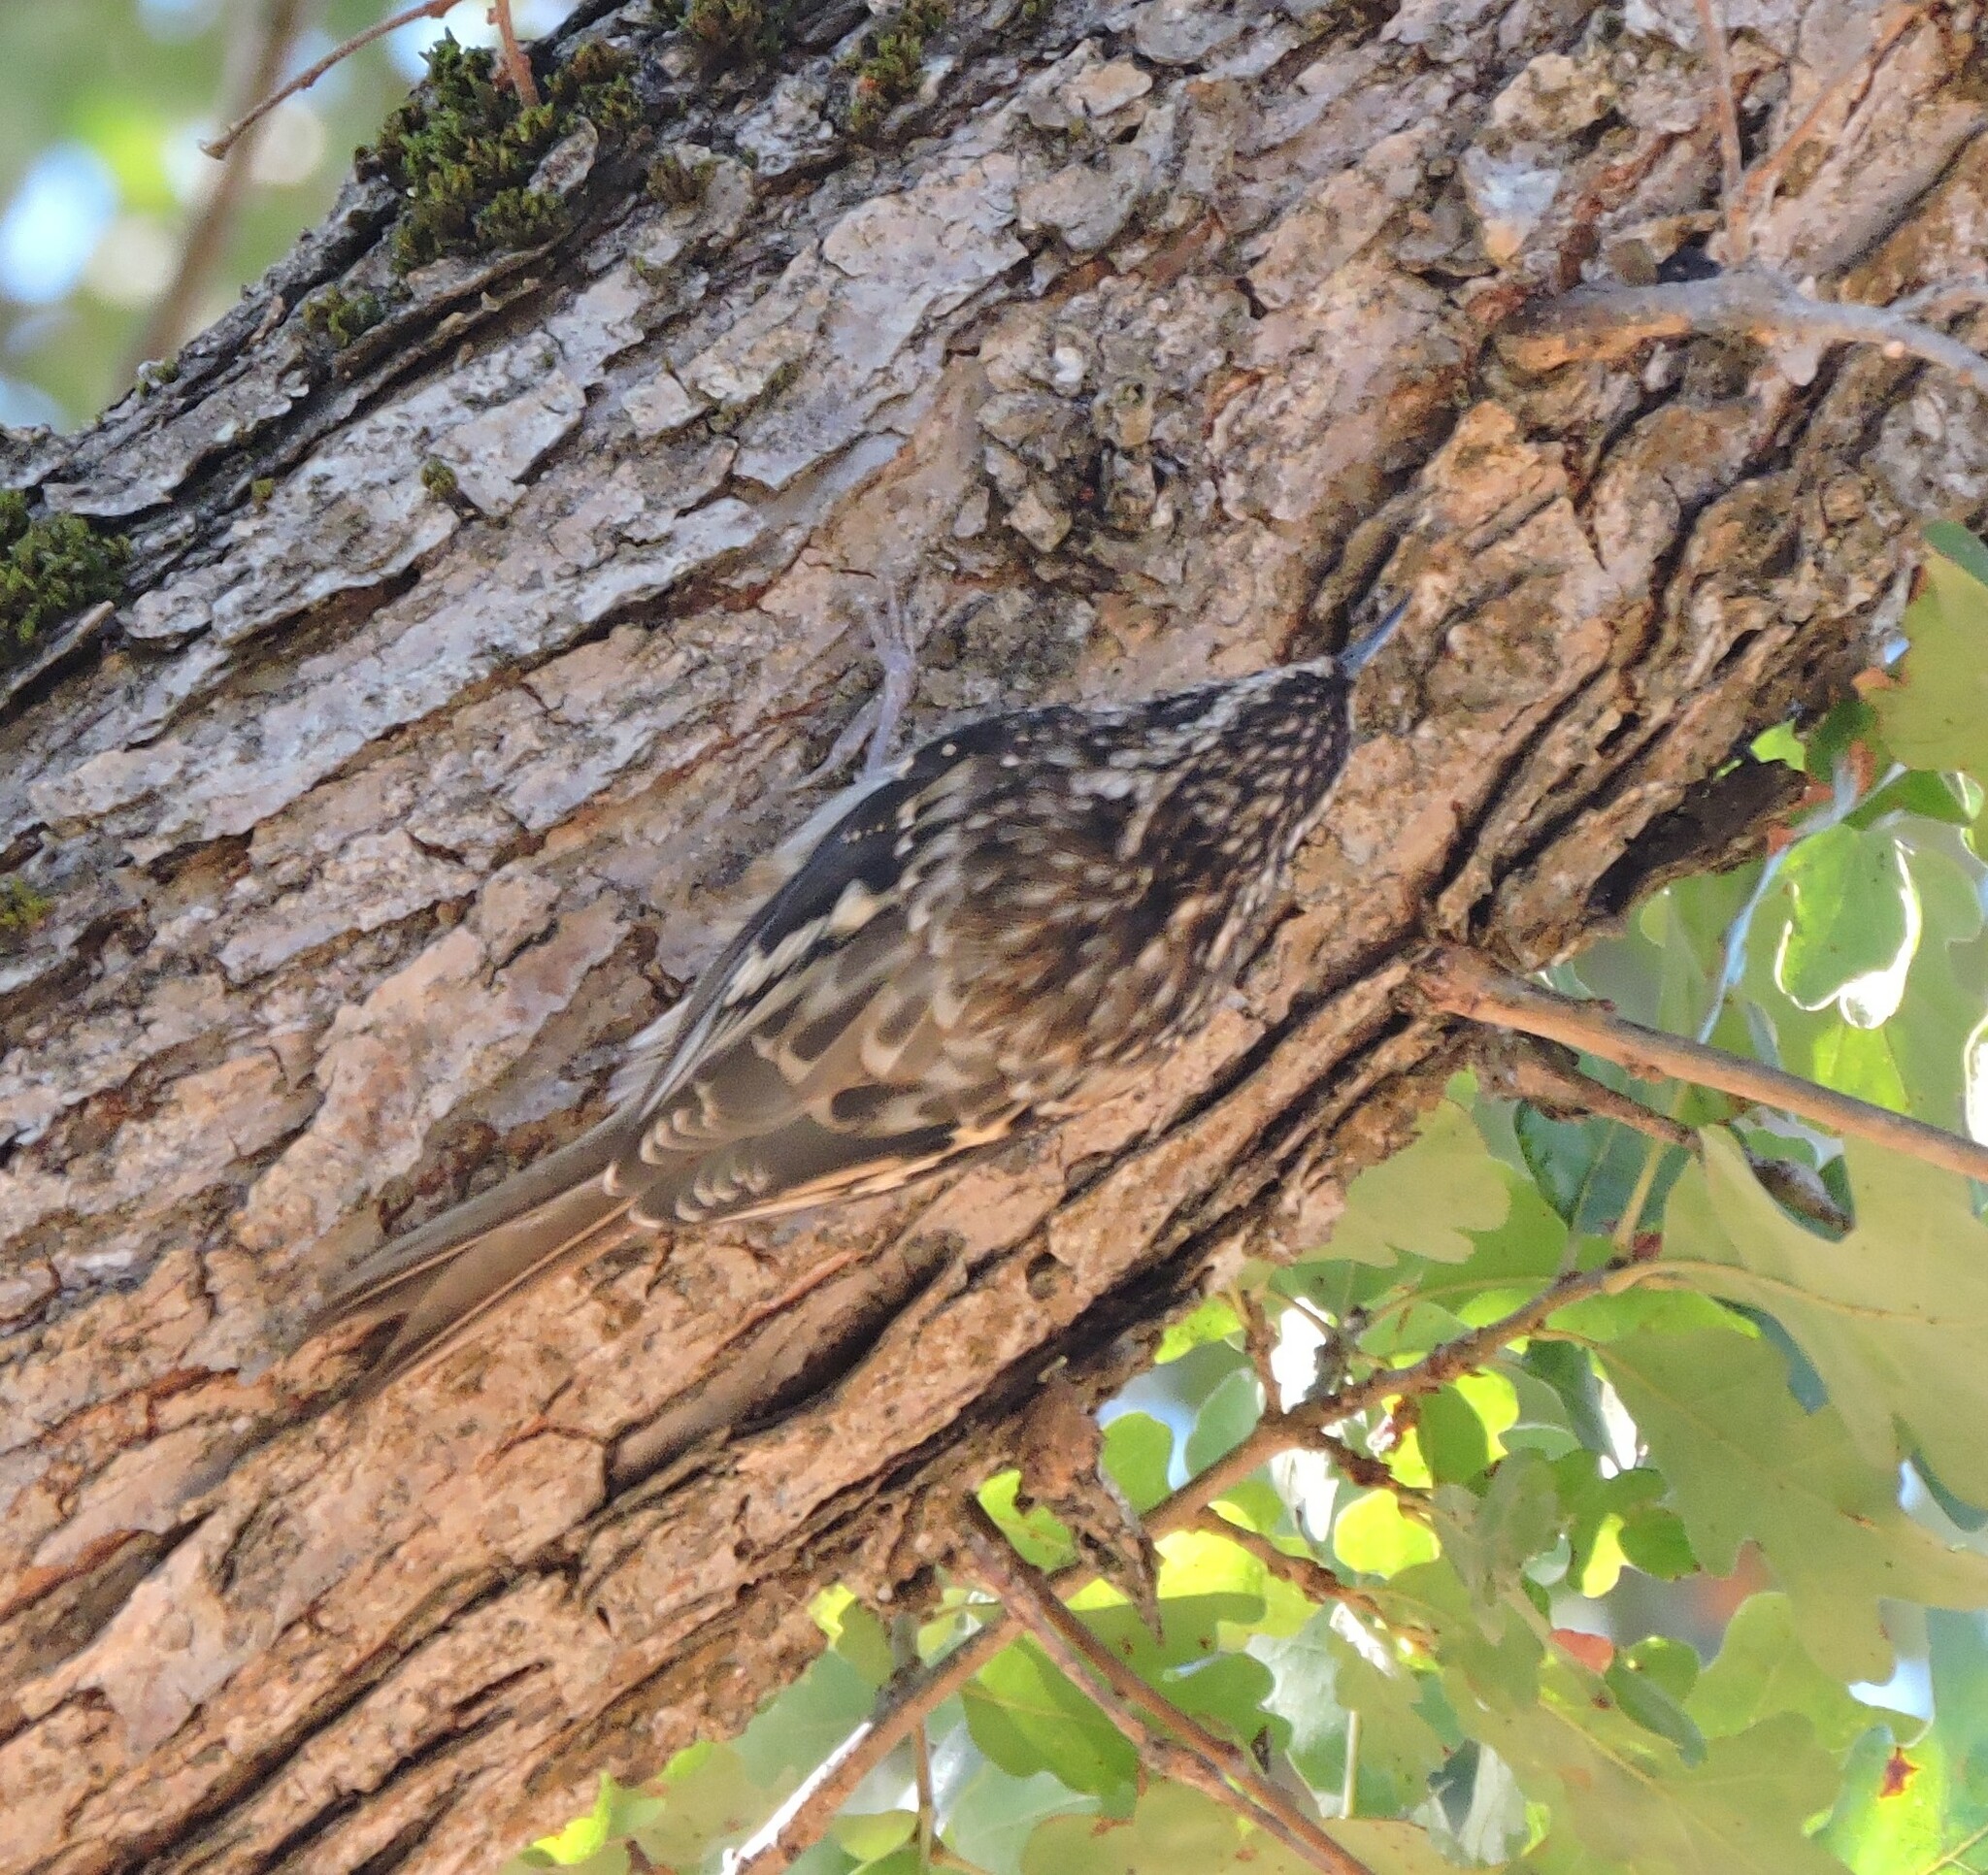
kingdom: Animalia
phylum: Chordata
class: Aves
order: Passeriformes
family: Certhiidae
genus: Certhia
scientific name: Certhia americana
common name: Brown creeper
